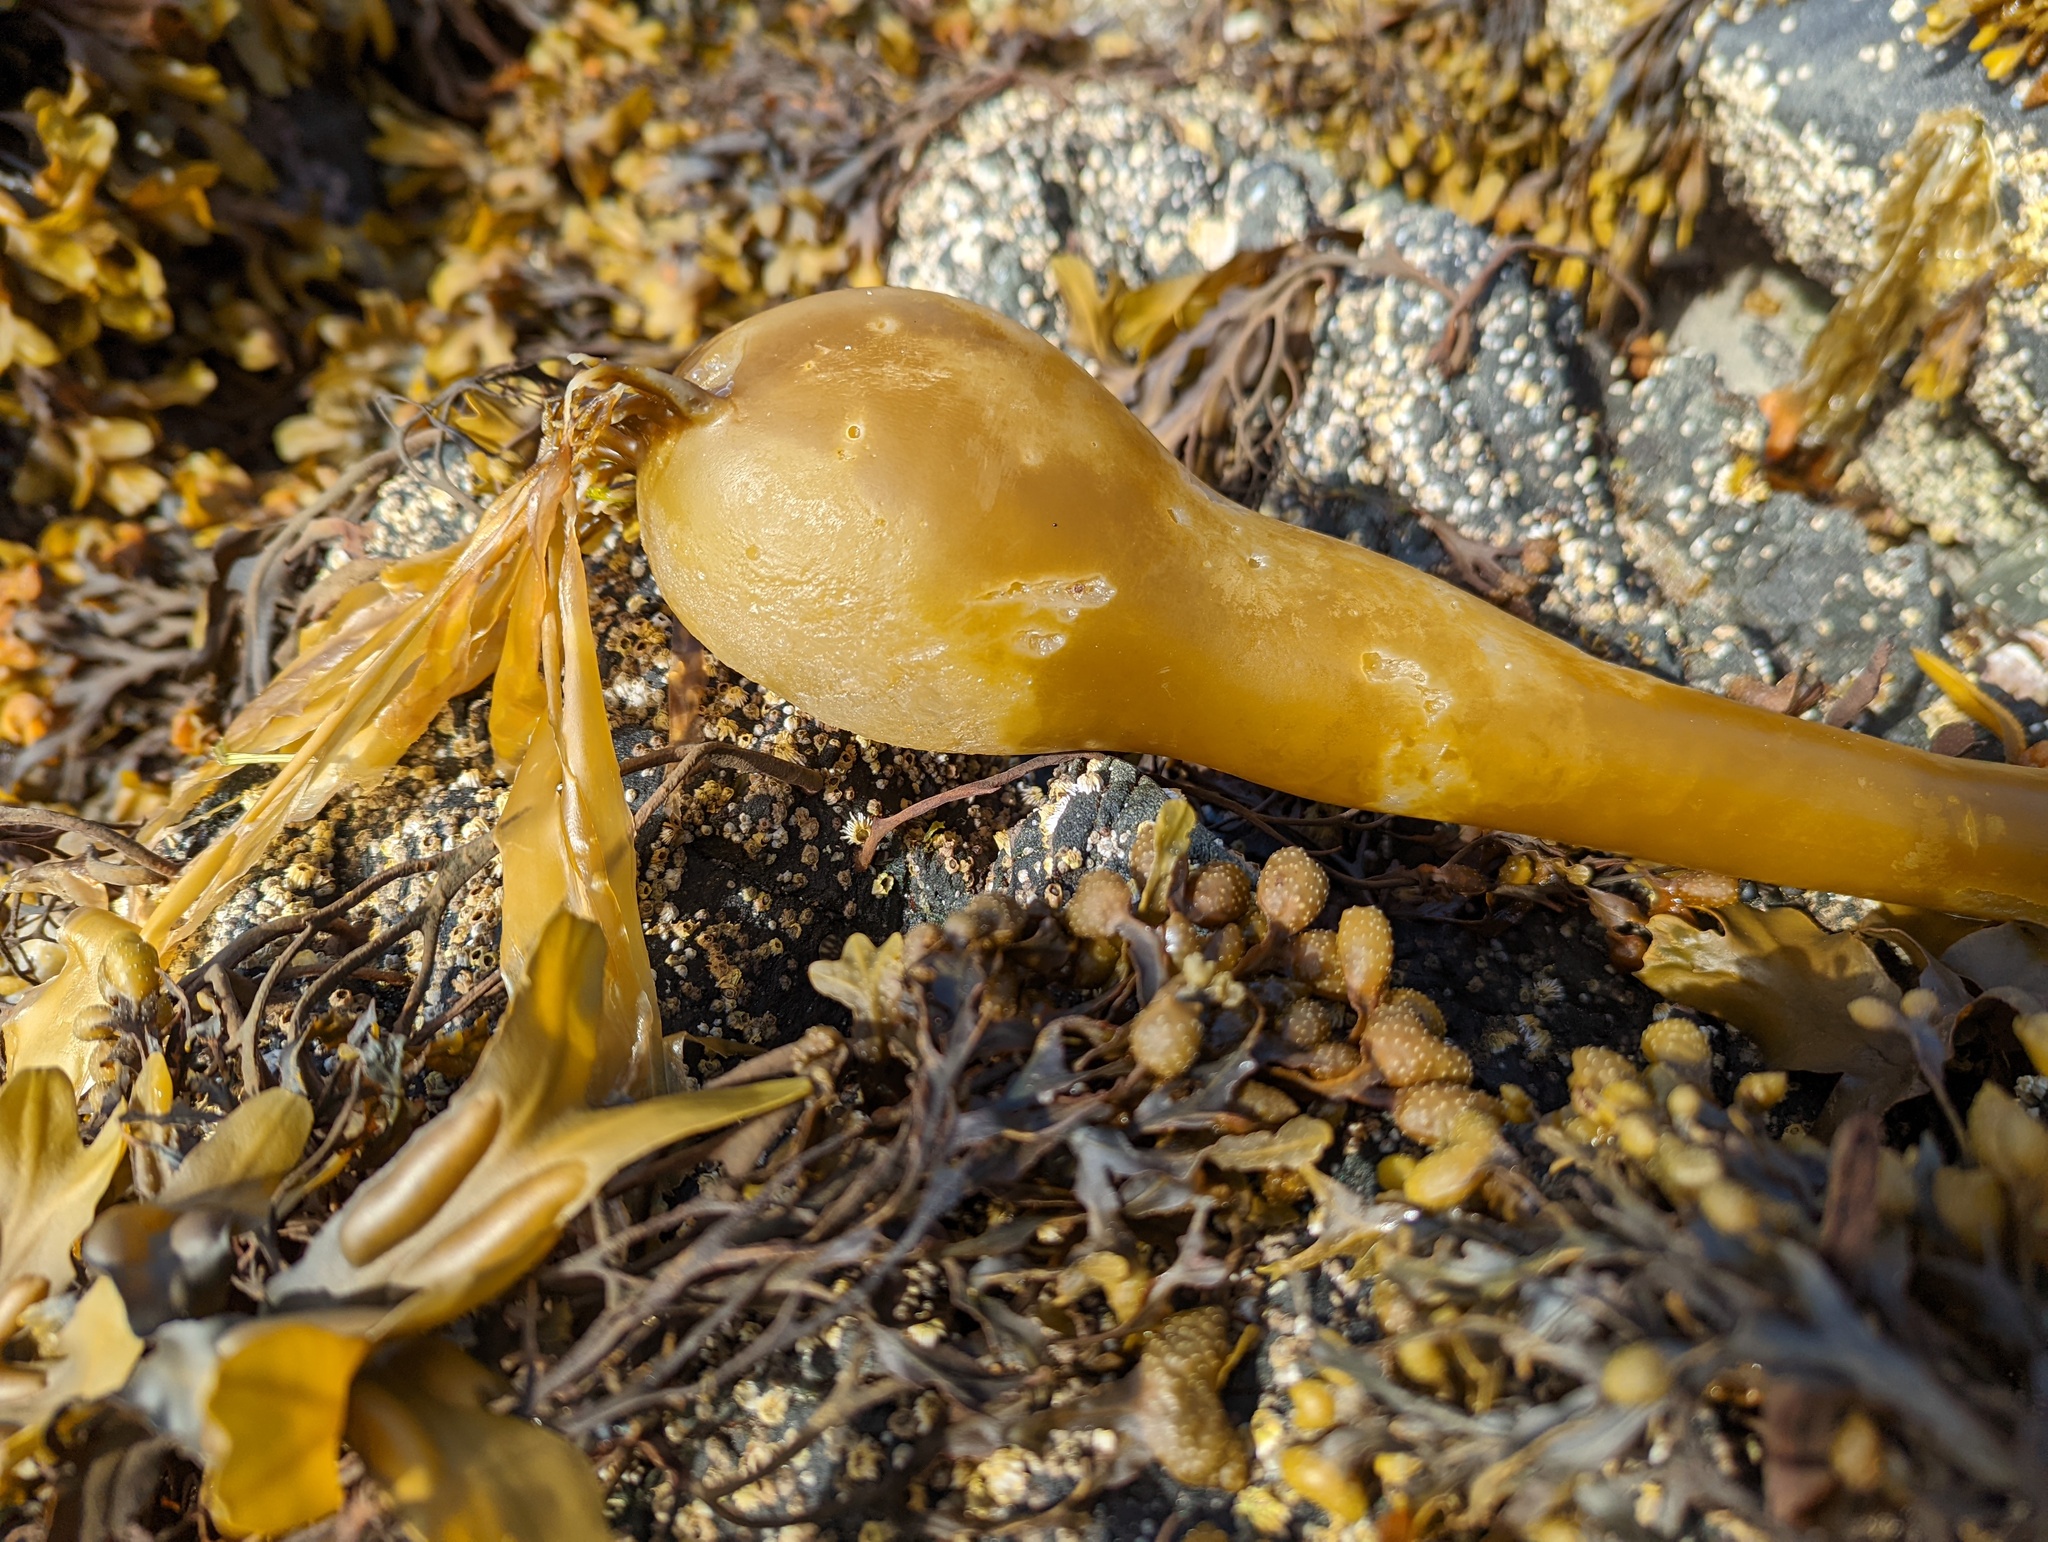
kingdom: Chromista
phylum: Ochrophyta
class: Phaeophyceae
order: Laminariales
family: Laminariaceae
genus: Nereocystis
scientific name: Nereocystis luetkeana
